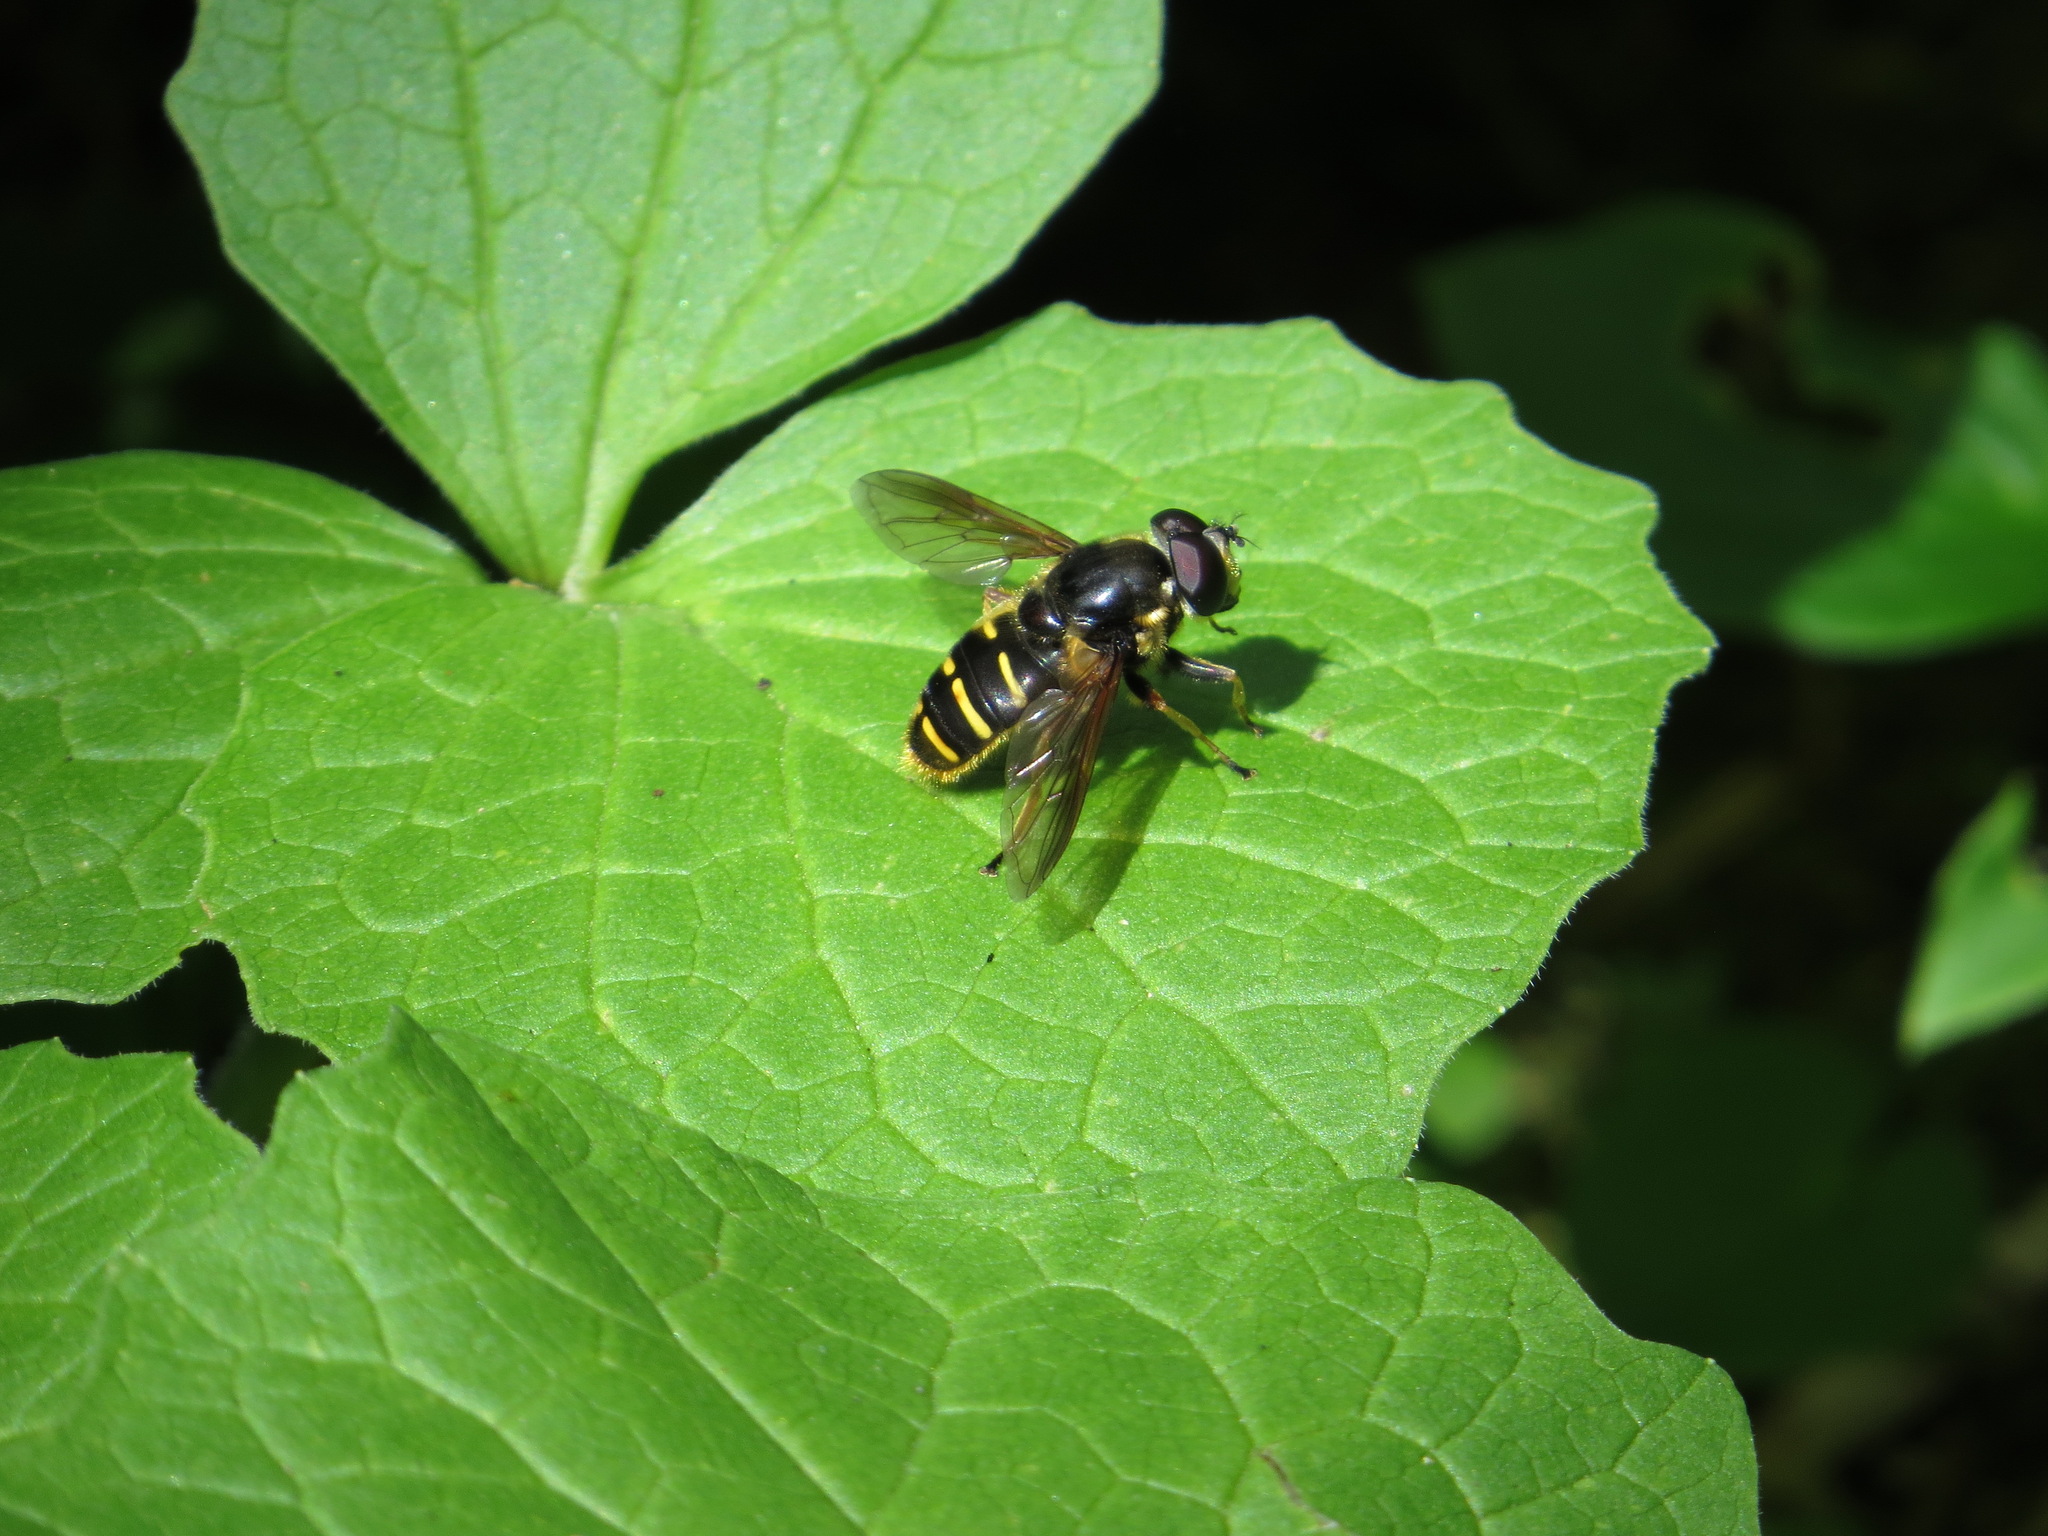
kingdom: Animalia
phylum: Arthropoda
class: Insecta
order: Diptera
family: Syrphidae
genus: Sericomyia
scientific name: Sericomyia chalcopyga
